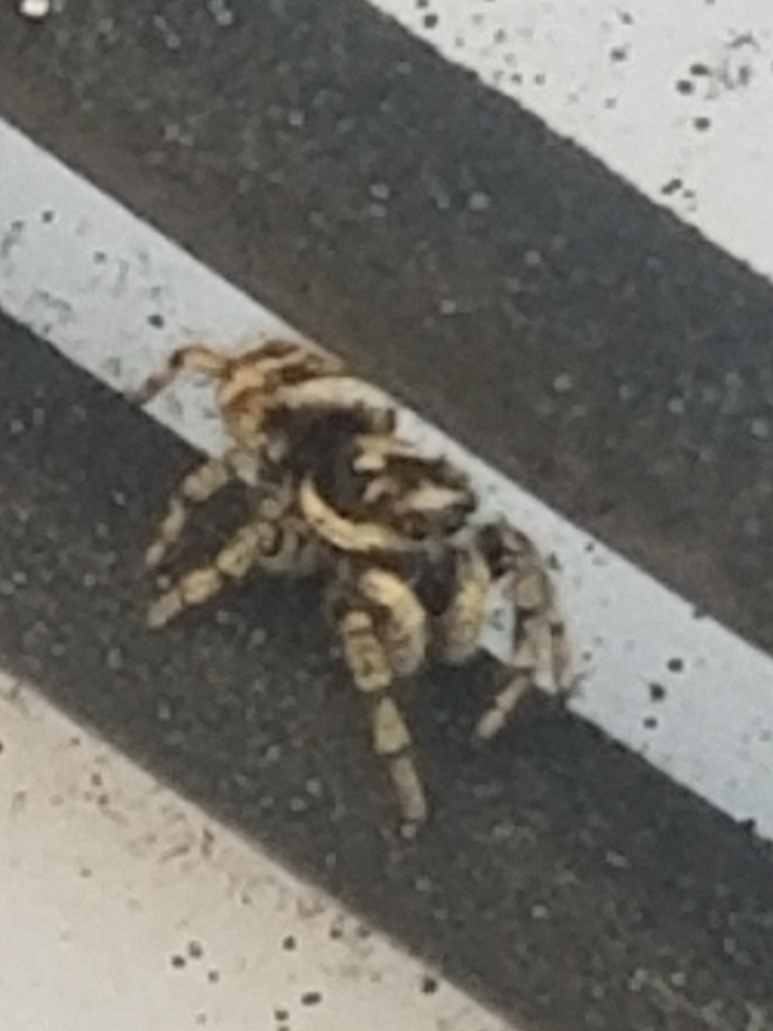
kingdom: Animalia
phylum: Arthropoda
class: Arachnida
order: Araneae
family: Salticidae
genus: Salticus
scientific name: Salticus scenicus
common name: Zebra jumper
